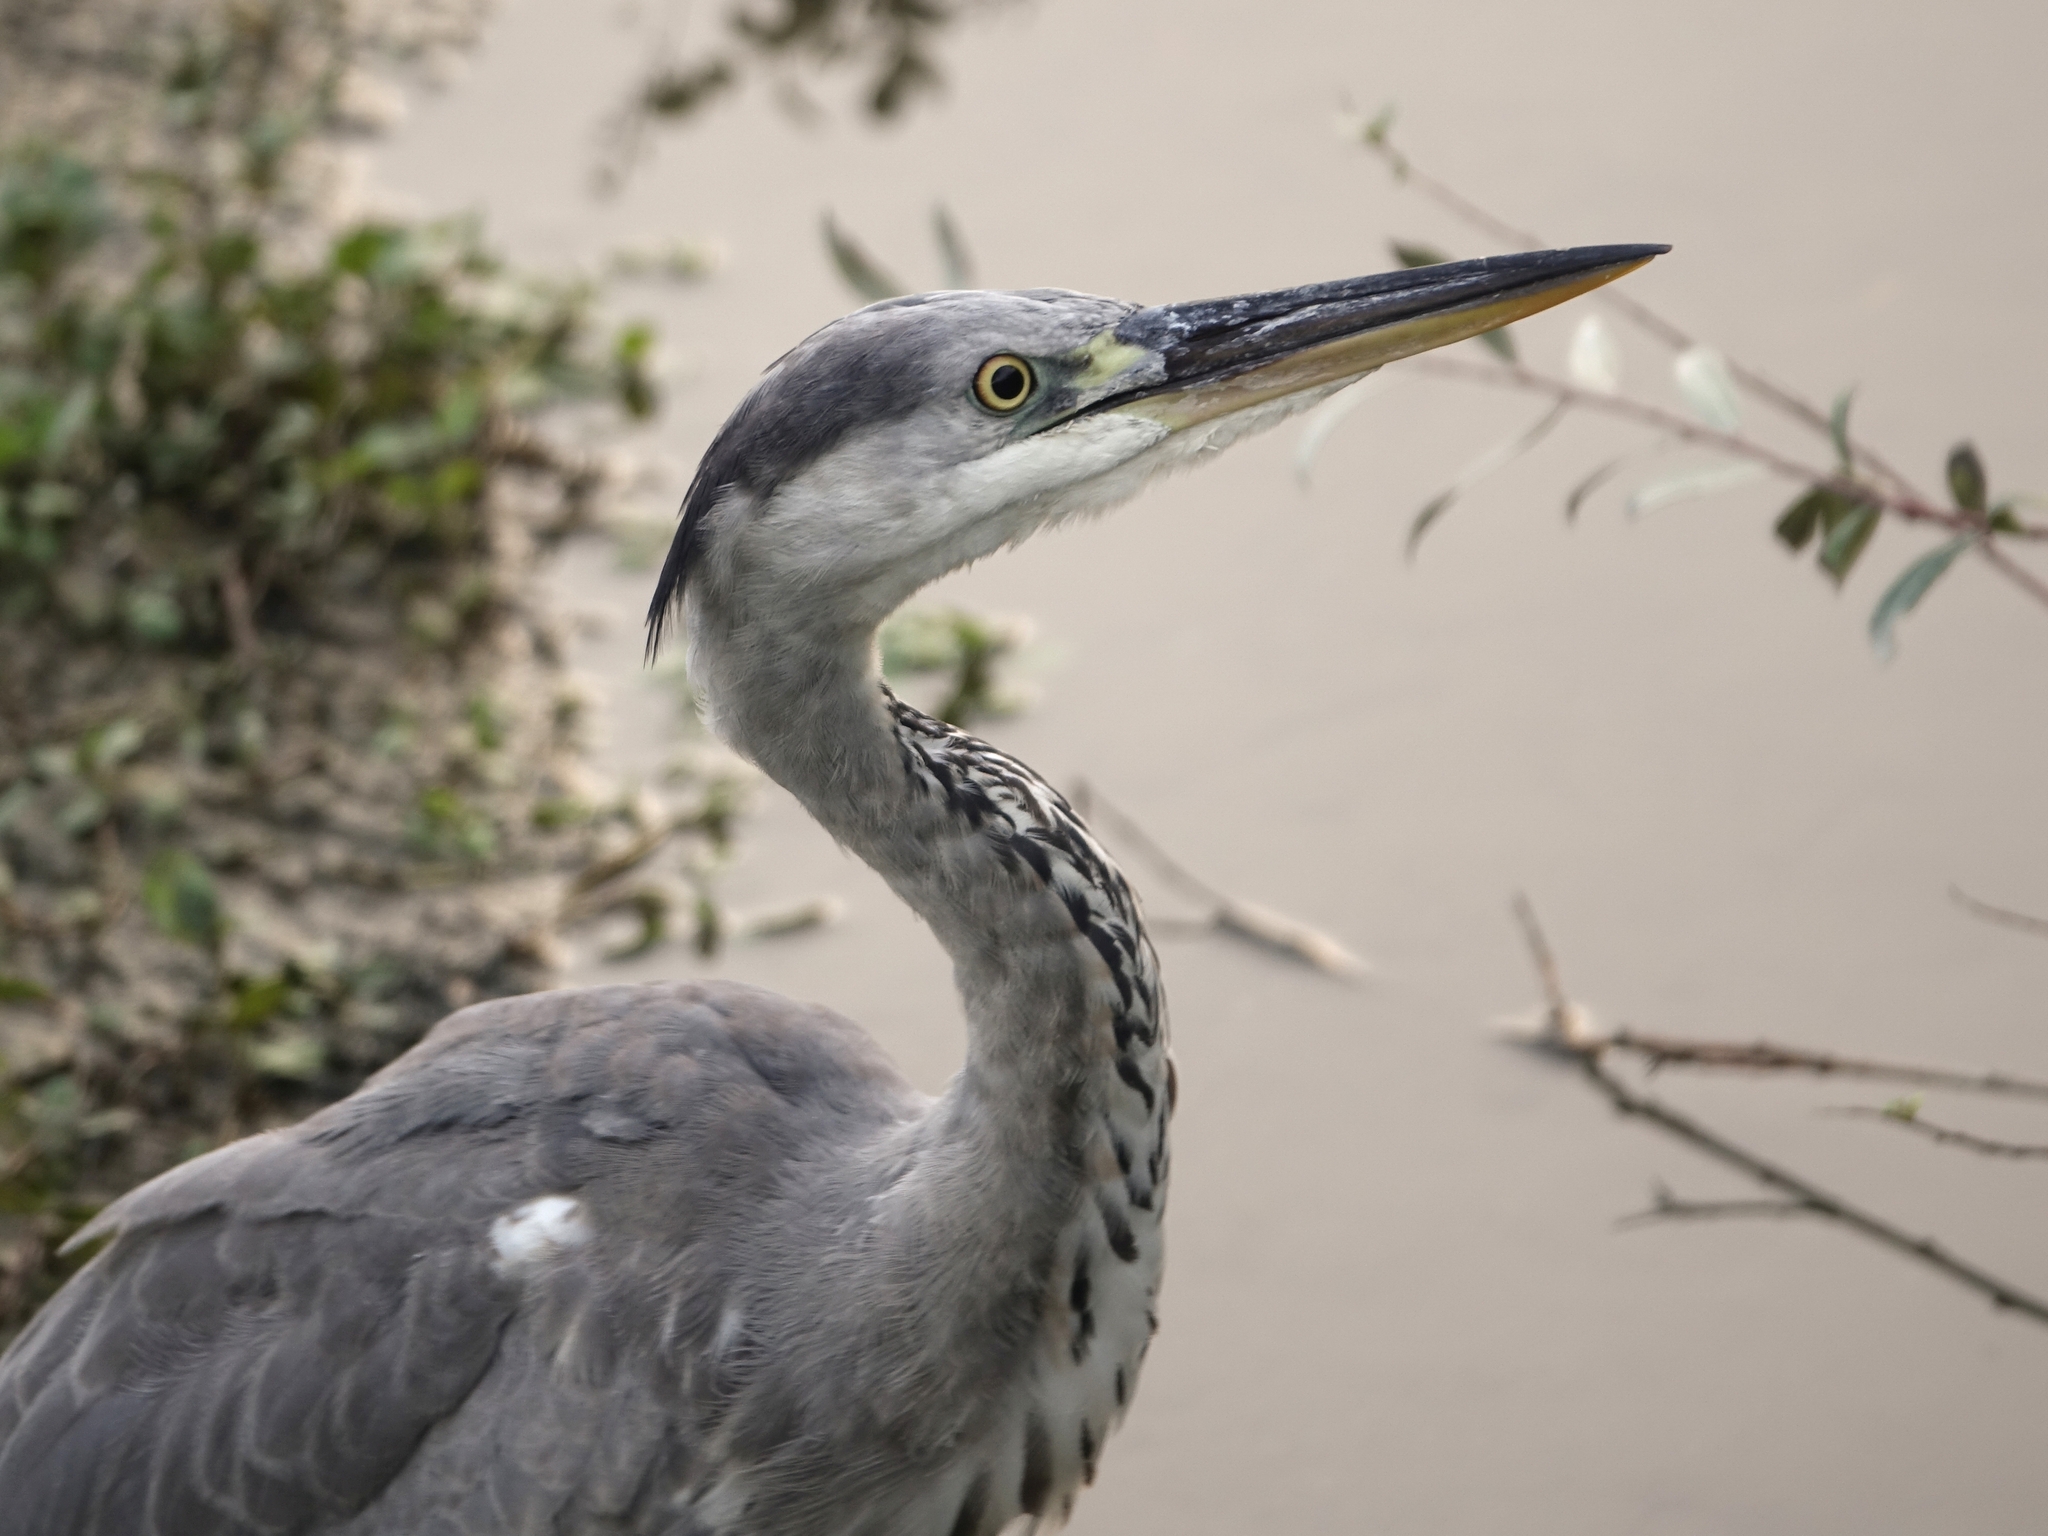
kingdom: Animalia
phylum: Chordata
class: Aves
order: Pelecaniformes
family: Ardeidae
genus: Ardea
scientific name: Ardea cinerea
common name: Grey heron
